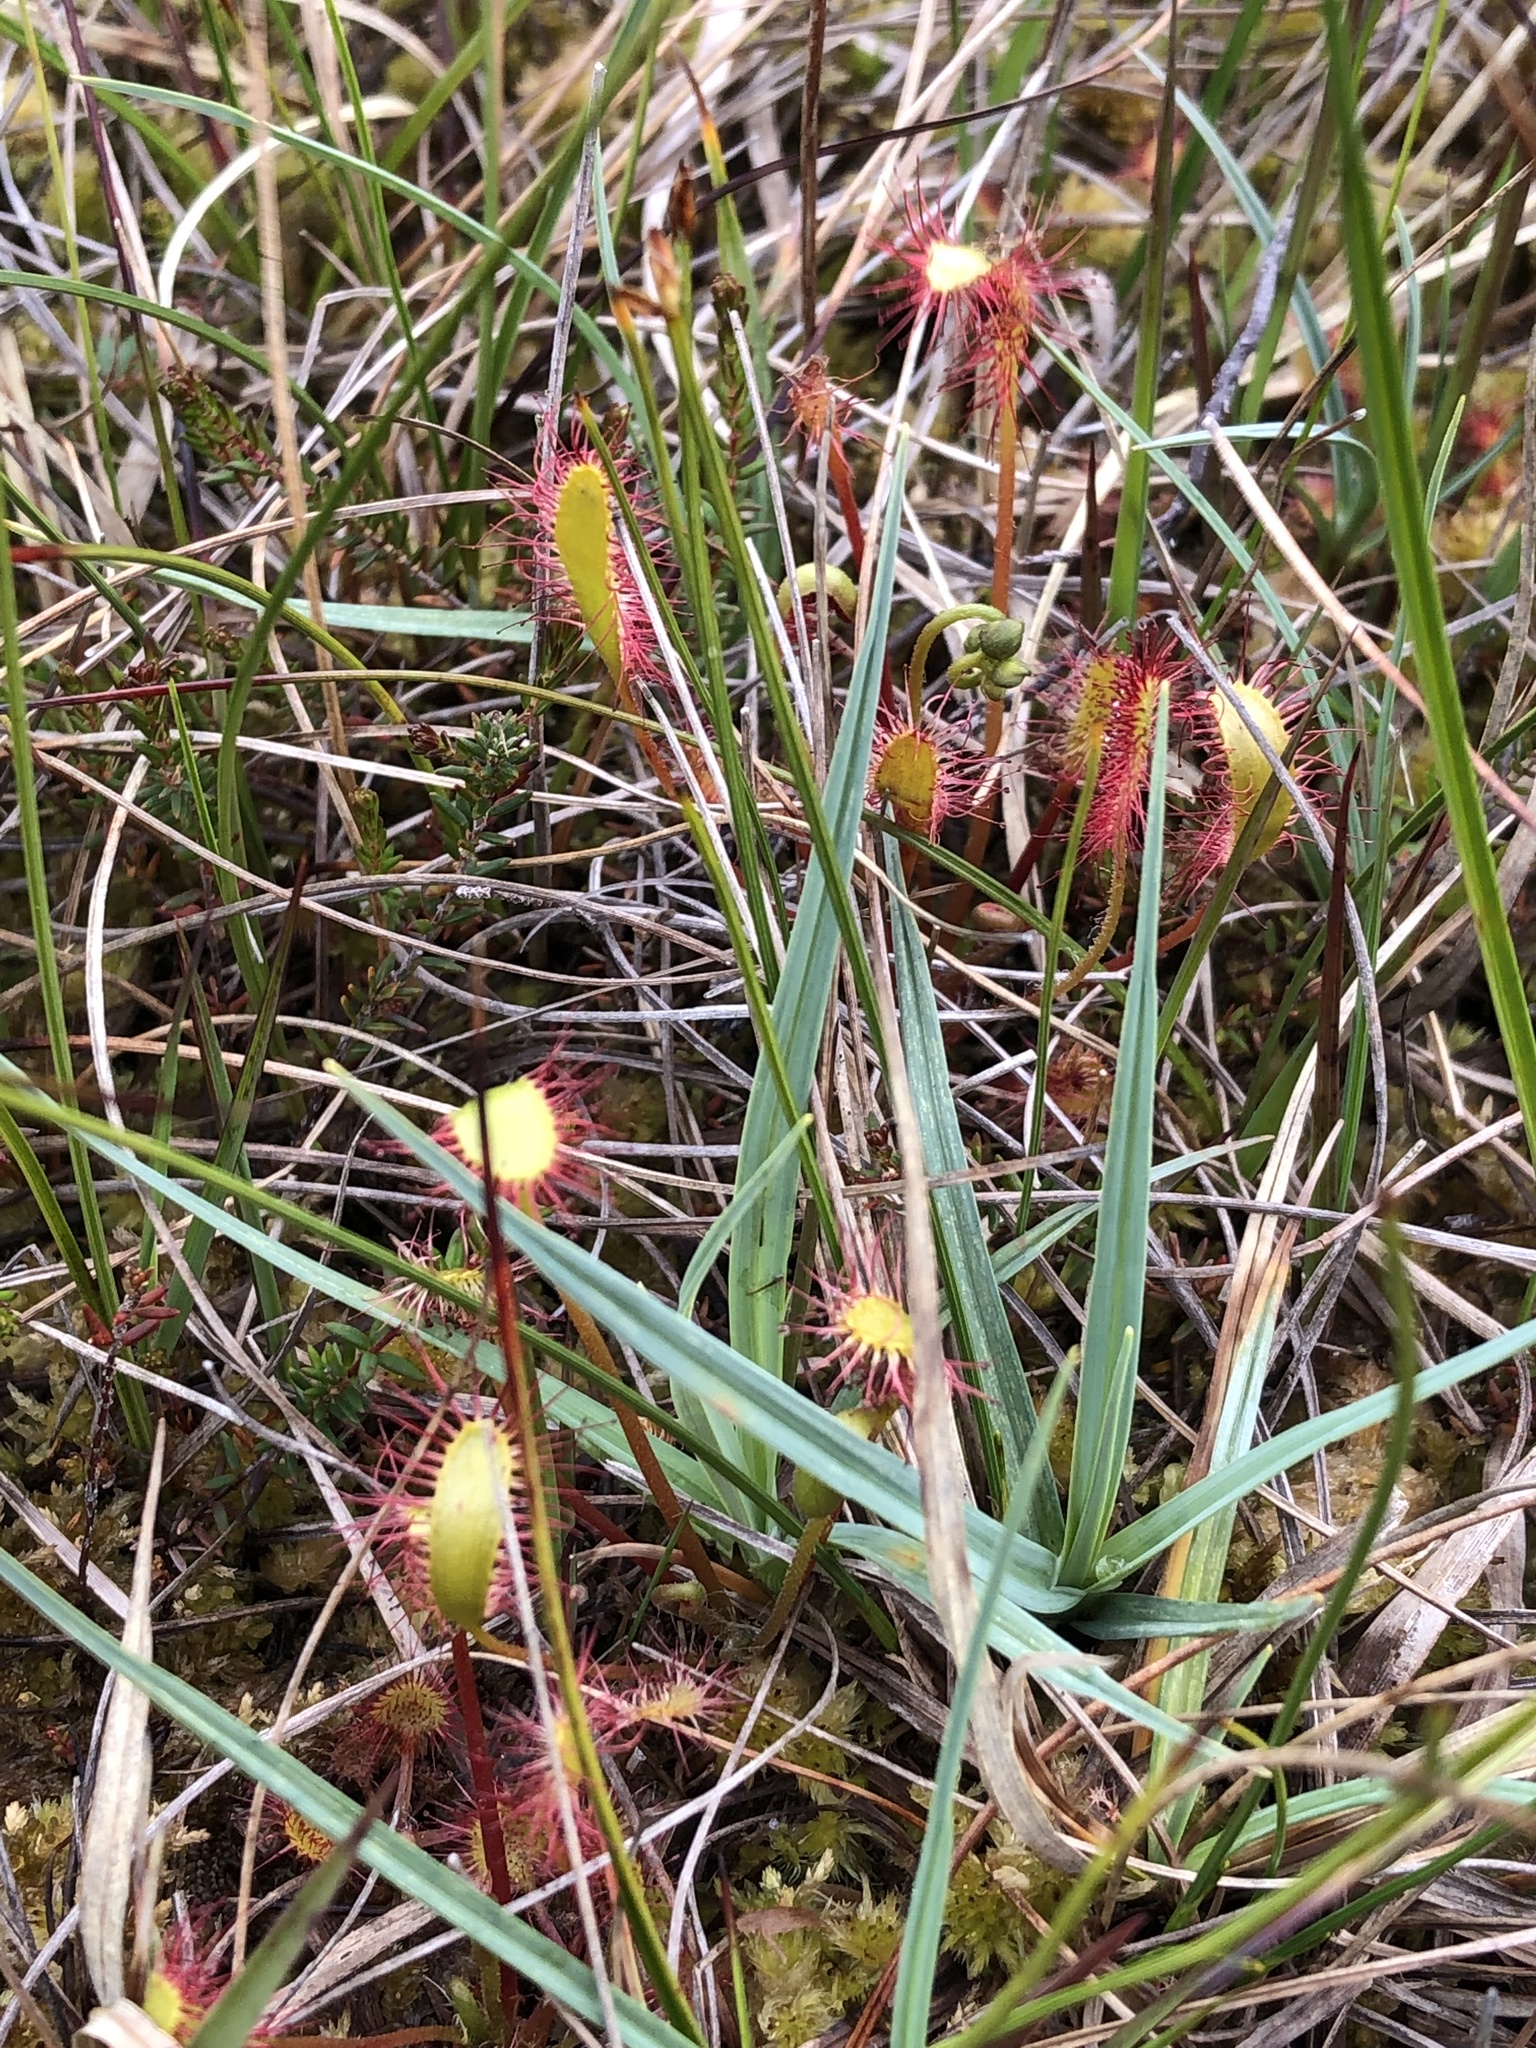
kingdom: Plantae
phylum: Tracheophyta
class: Magnoliopsida
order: Caryophyllales
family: Droseraceae
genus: Drosera
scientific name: Drosera anglica
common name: Great sundew
